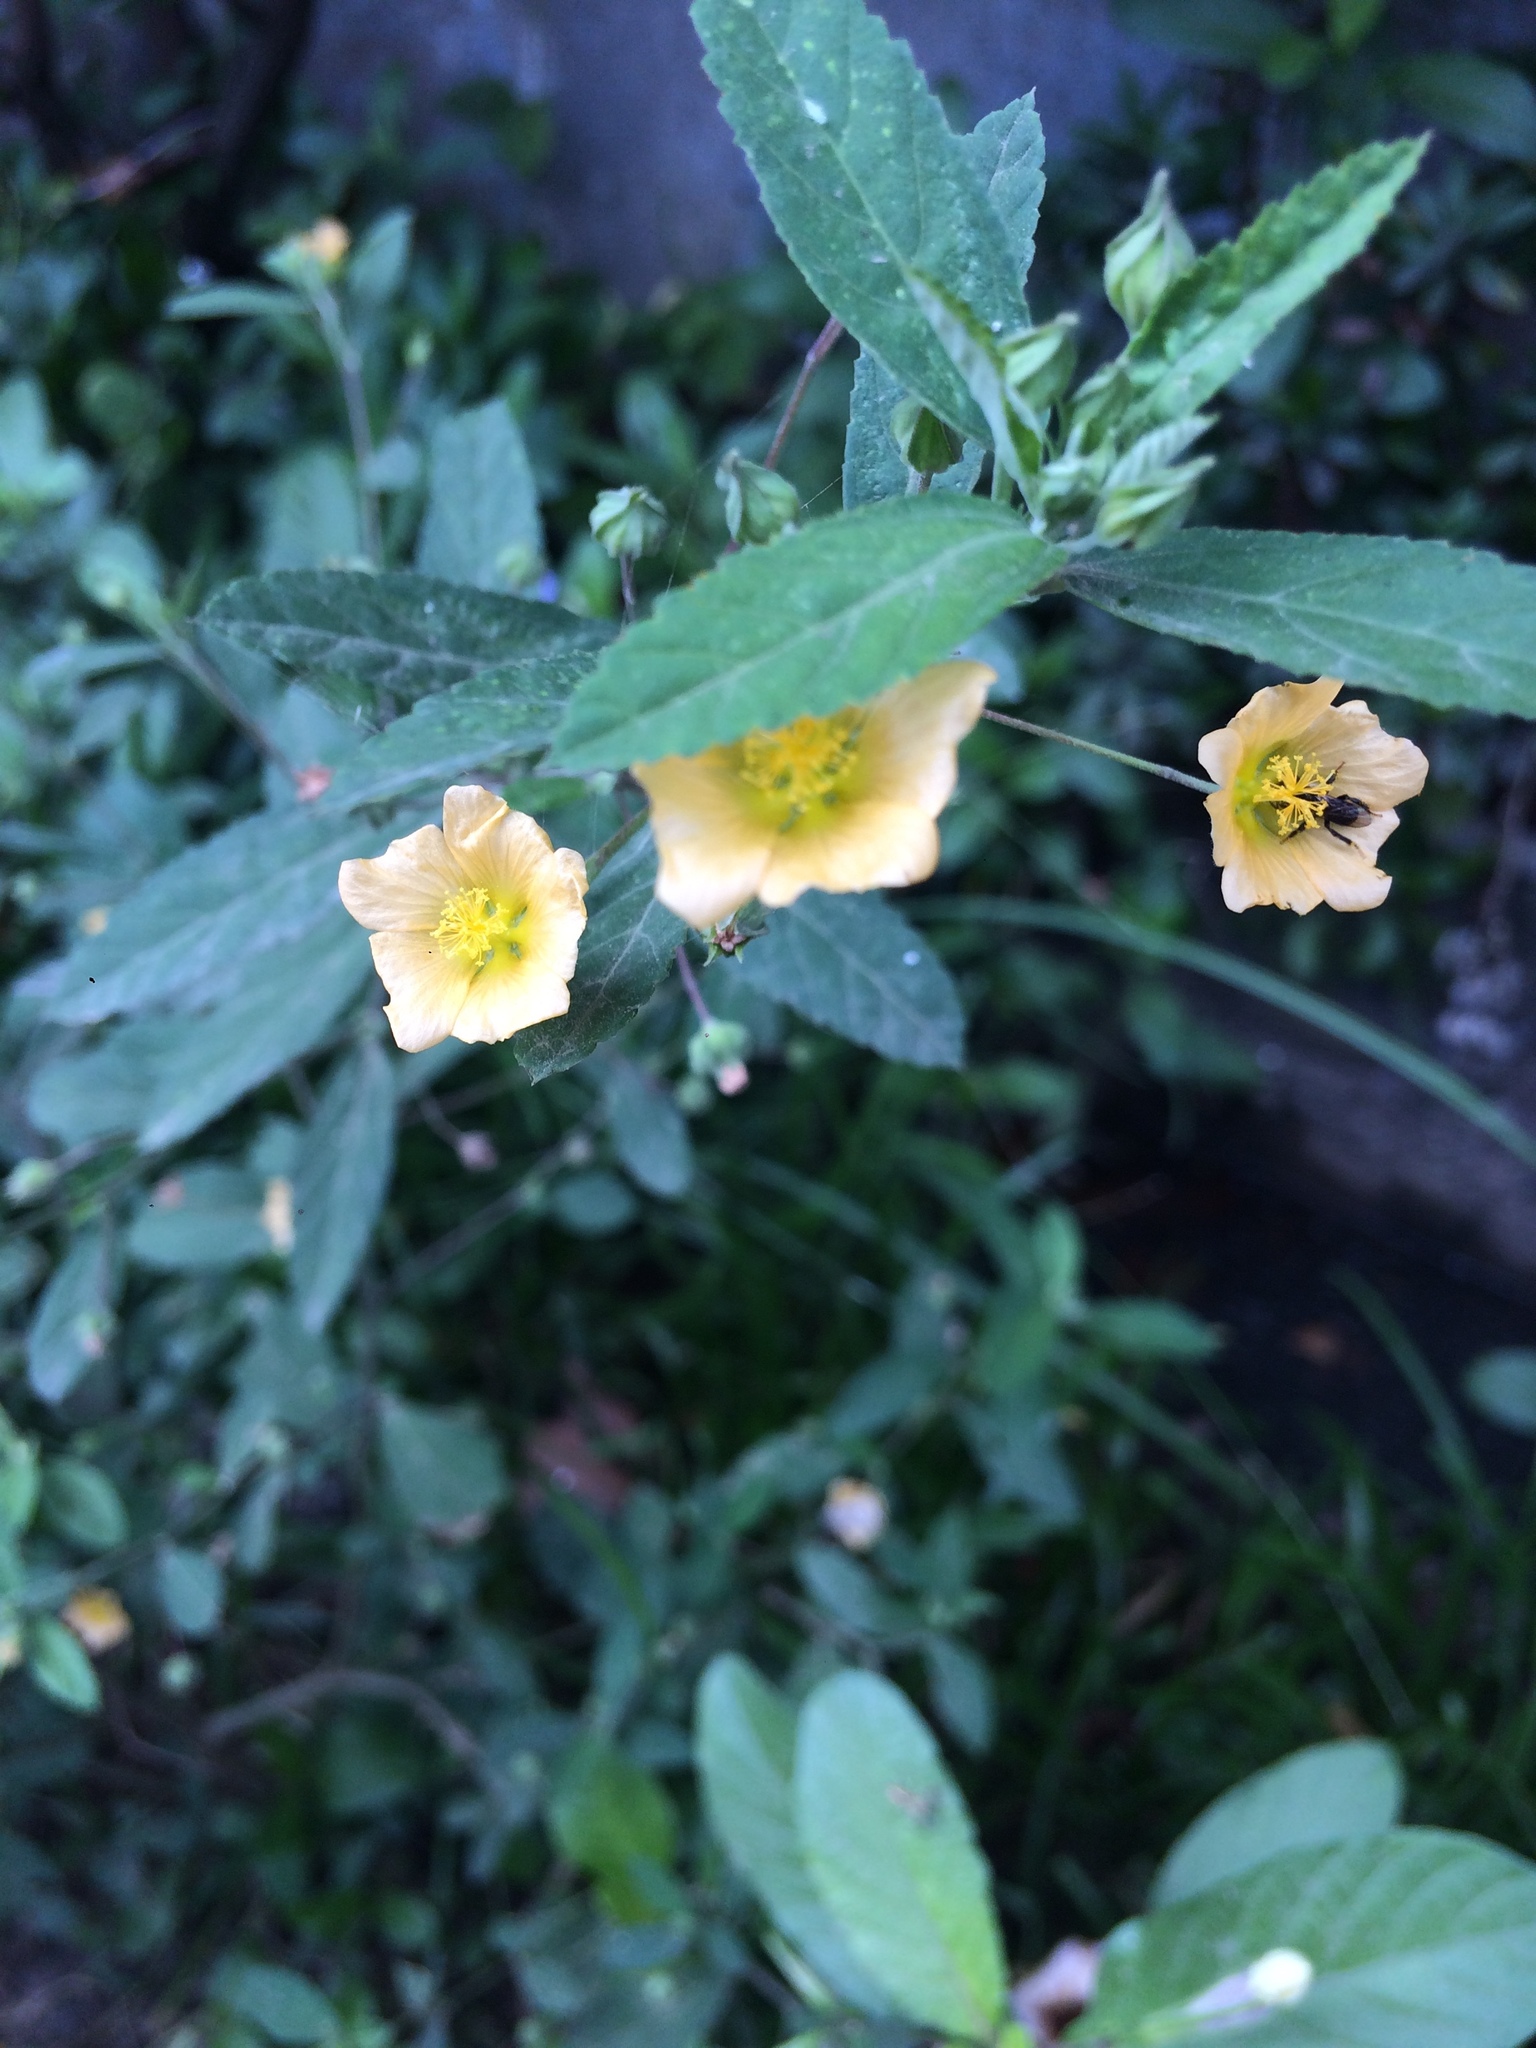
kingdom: Plantae
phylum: Tracheophyta
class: Magnoliopsida
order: Malvales
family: Malvaceae
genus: Sida
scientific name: Sida rhombifolia
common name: Queensland-hemp
